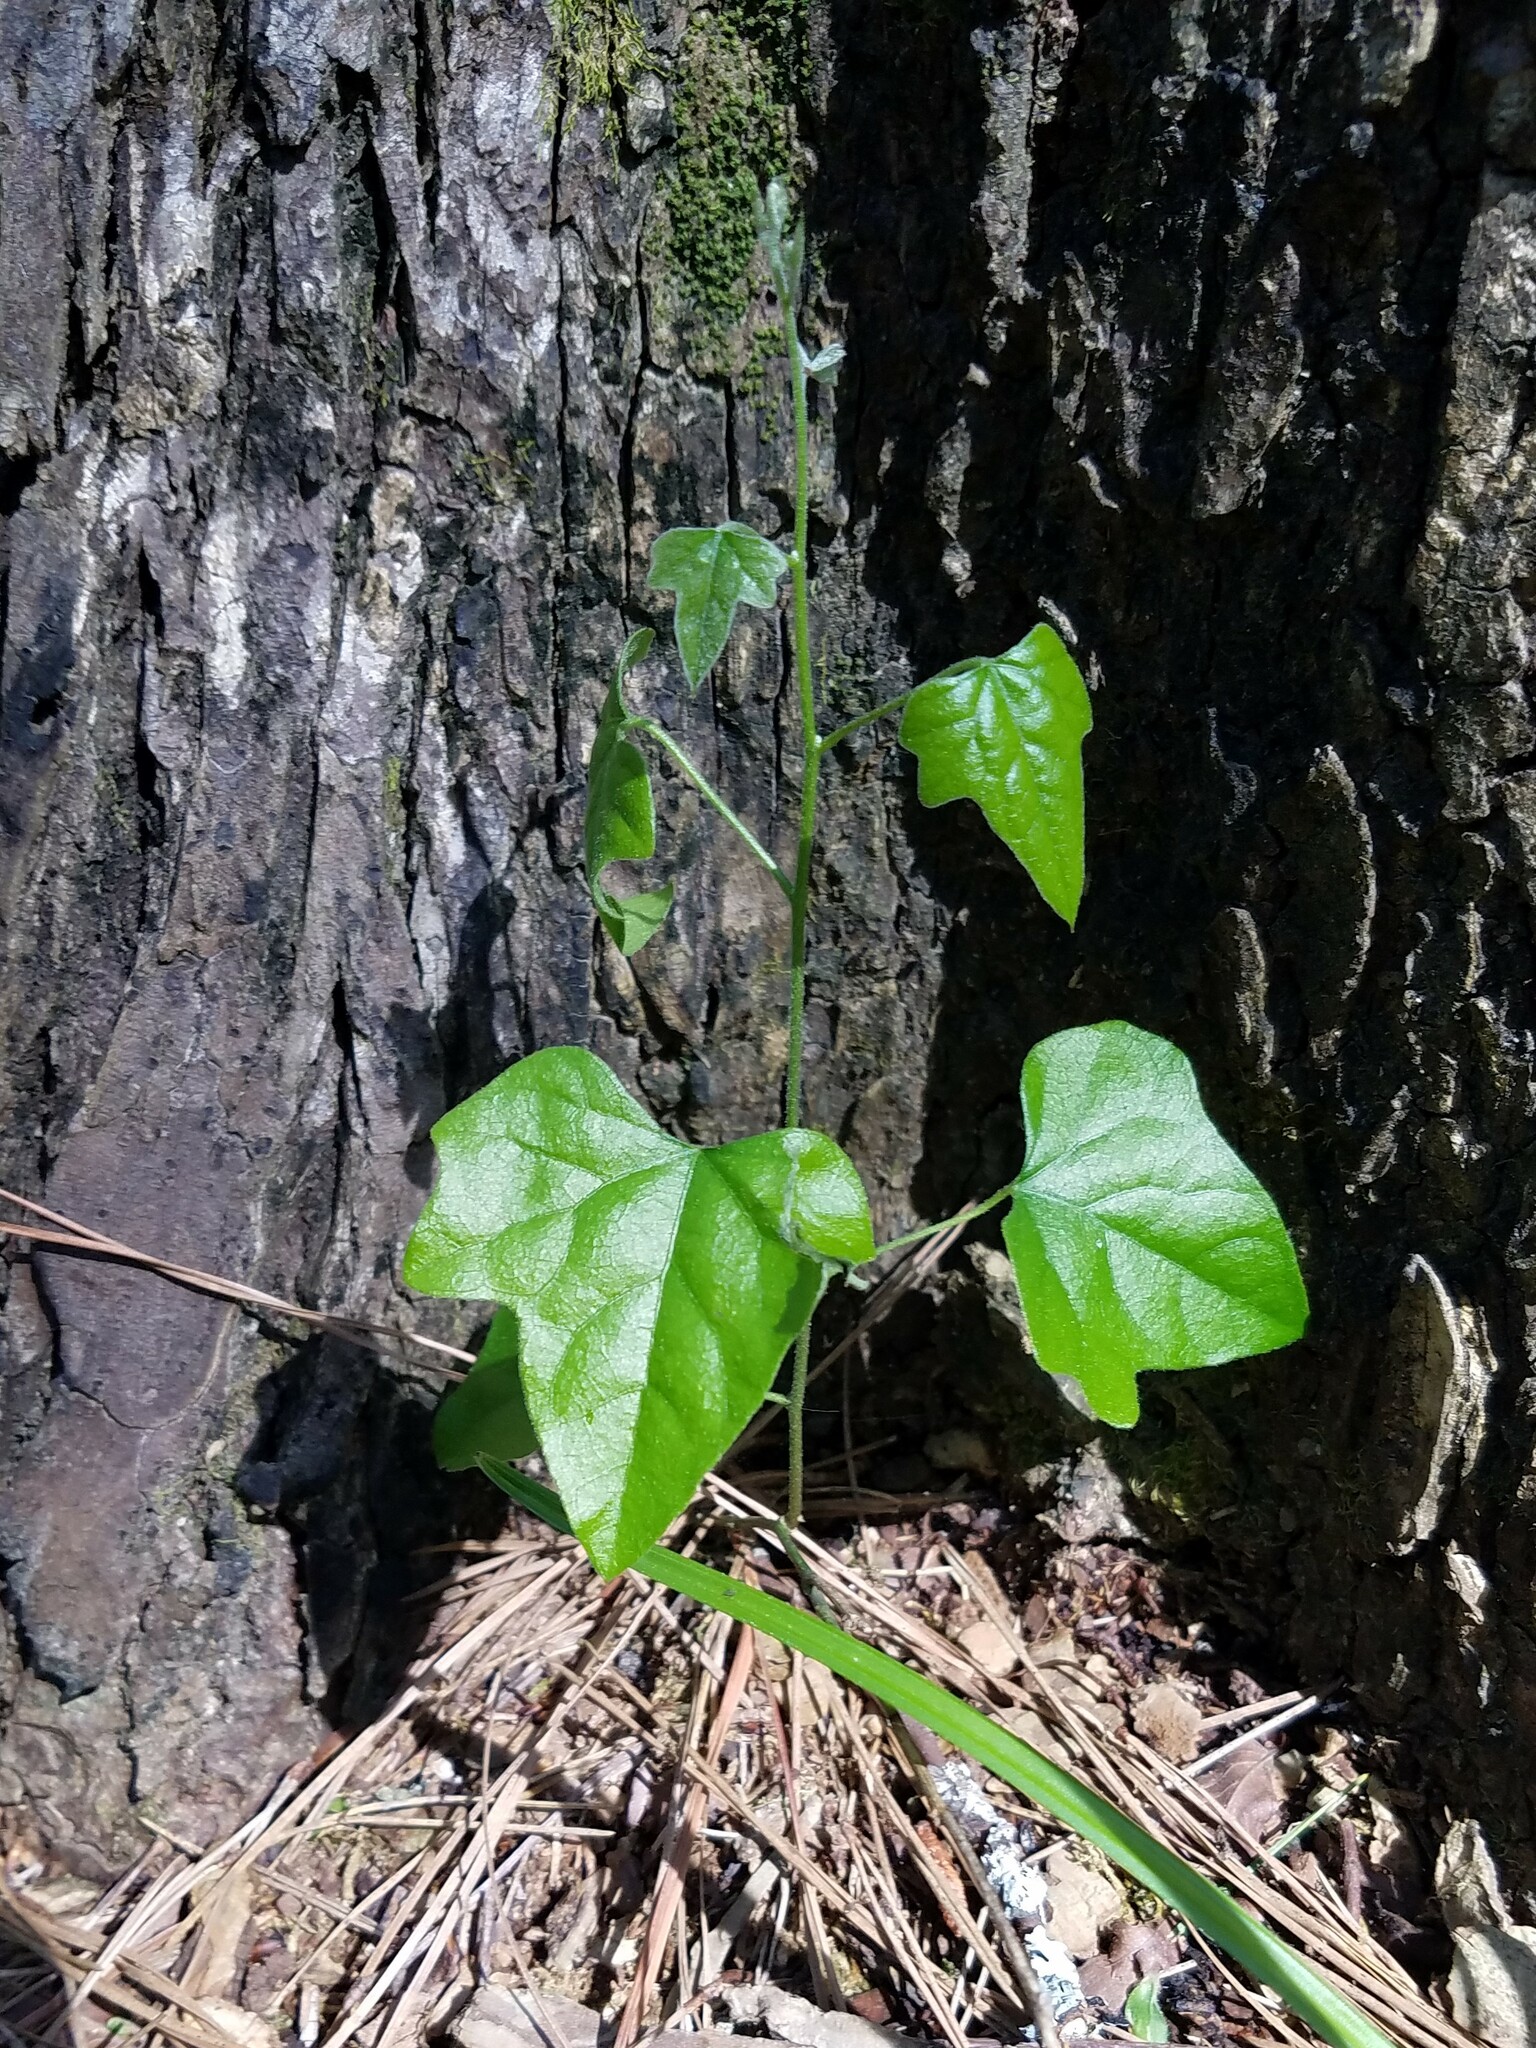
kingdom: Plantae
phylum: Tracheophyta
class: Magnoliopsida
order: Ranunculales
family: Menispermaceae
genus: Cocculus
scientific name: Cocculus carolinus
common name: Carolina moonseed
